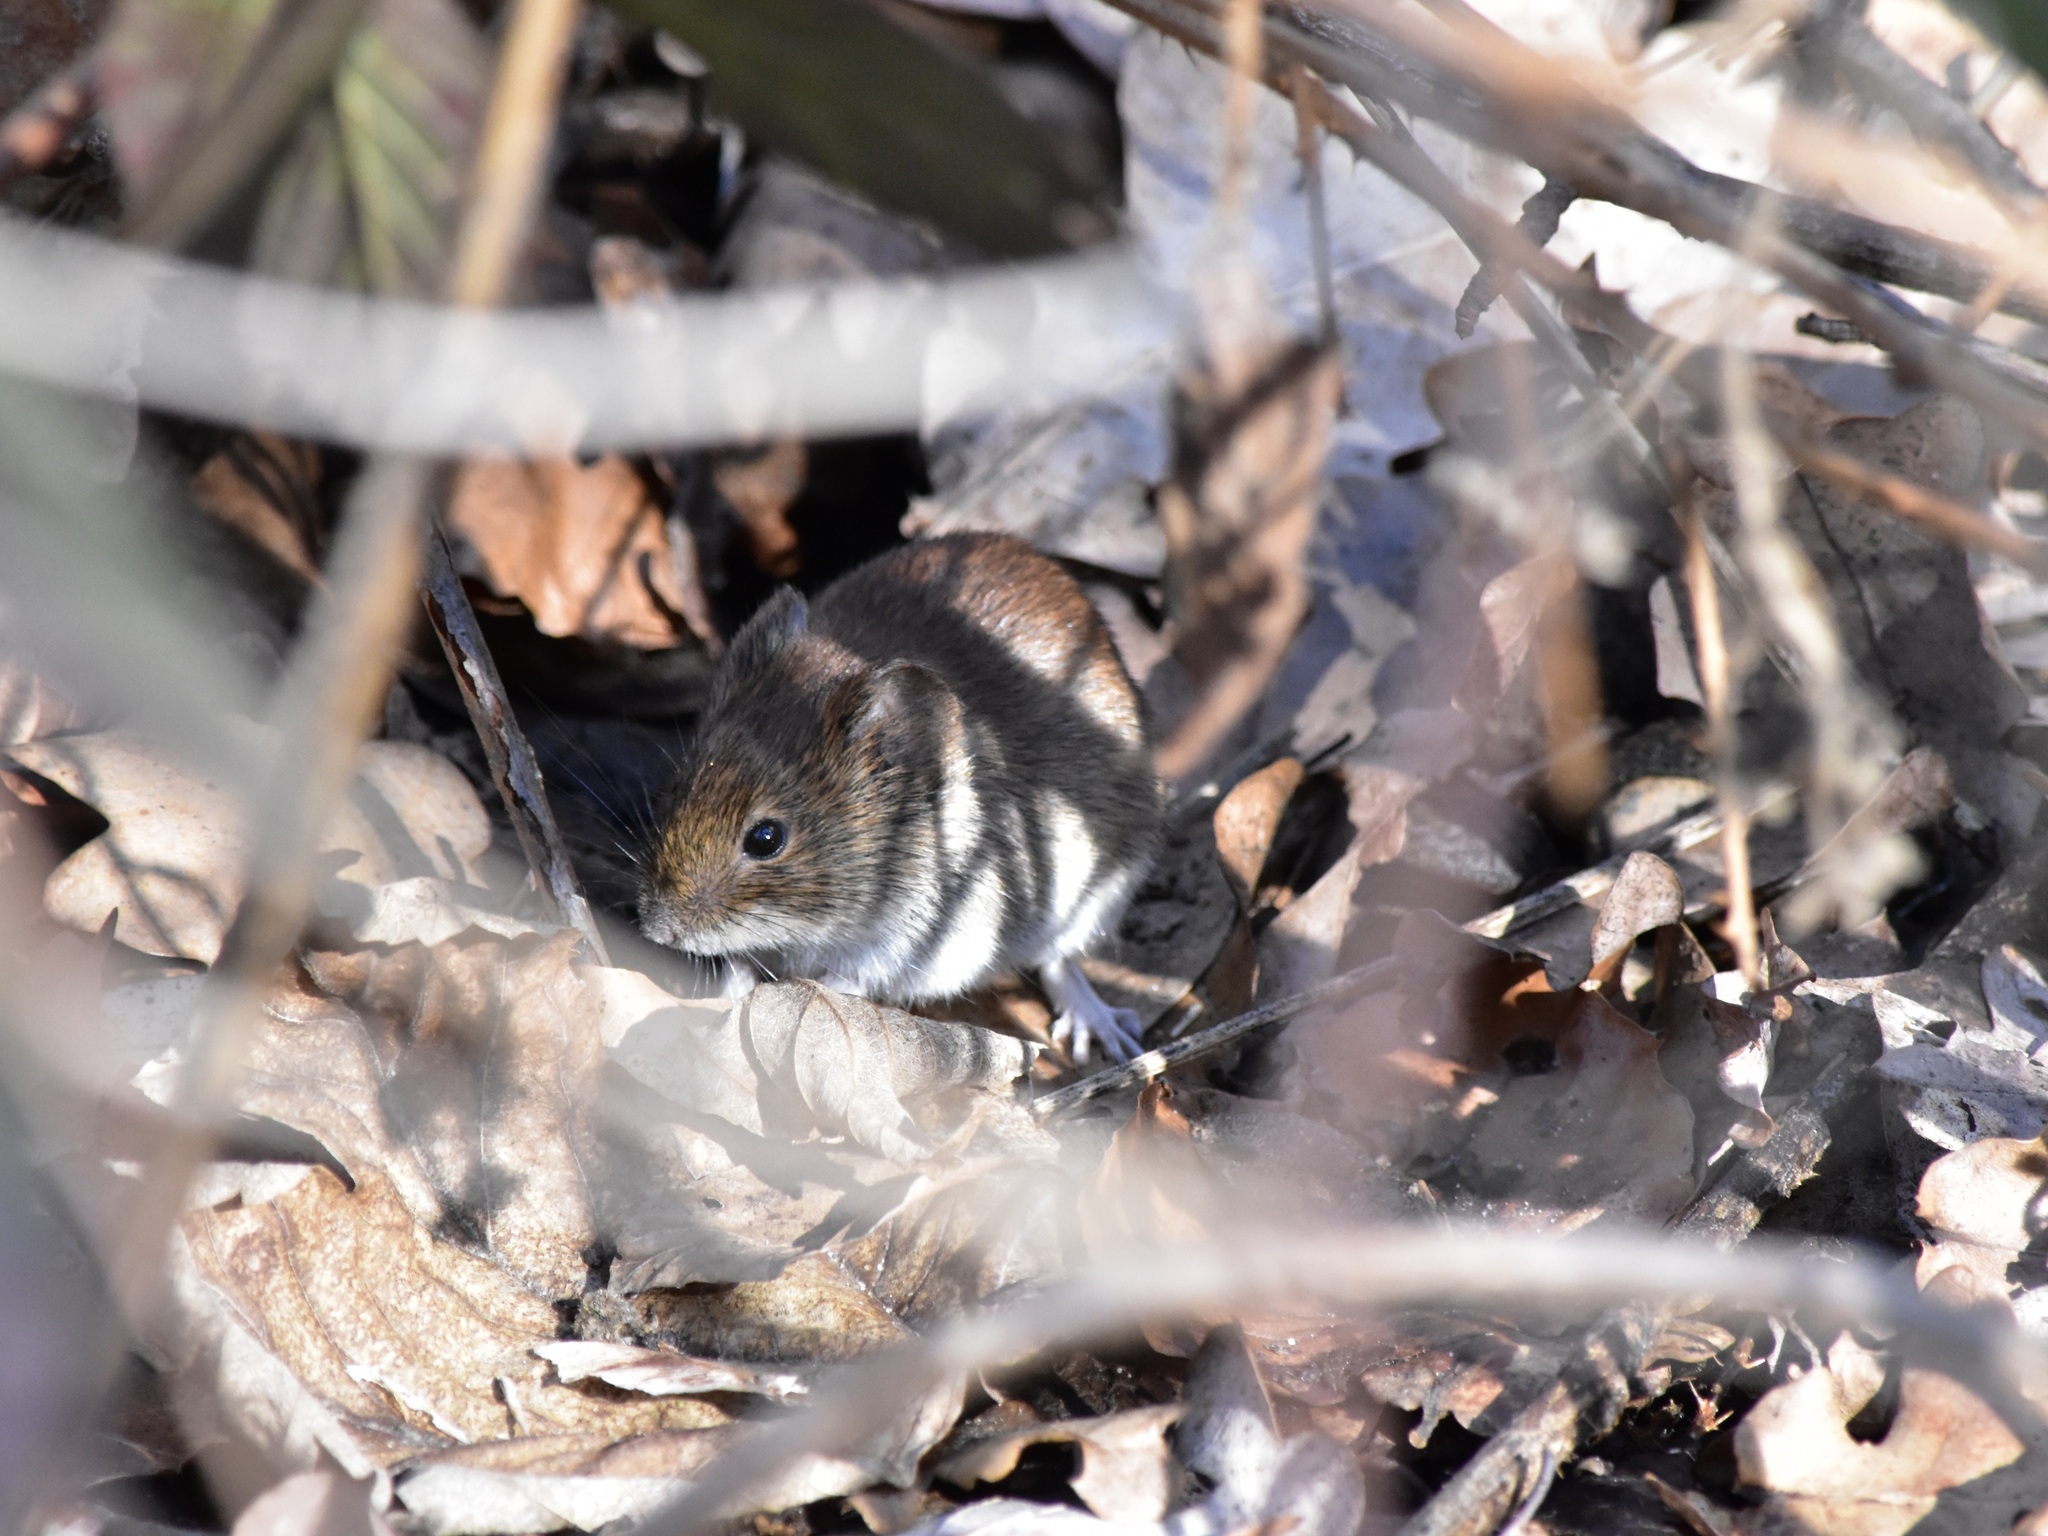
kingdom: Animalia
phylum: Chordata
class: Mammalia
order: Rodentia
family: Cricetidae
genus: Myodes
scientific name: Myodes glareolus
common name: Bank vole
